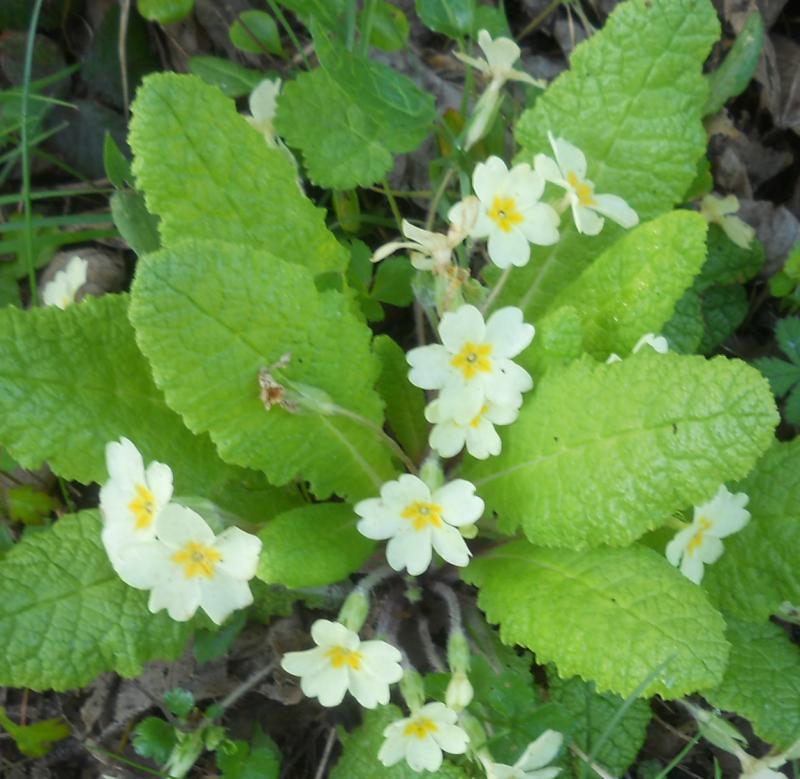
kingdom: Plantae
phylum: Tracheophyta
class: Magnoliopsida
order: Ericales
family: Primulaceae
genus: Primula
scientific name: Primula vulgaris
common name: Primrose
